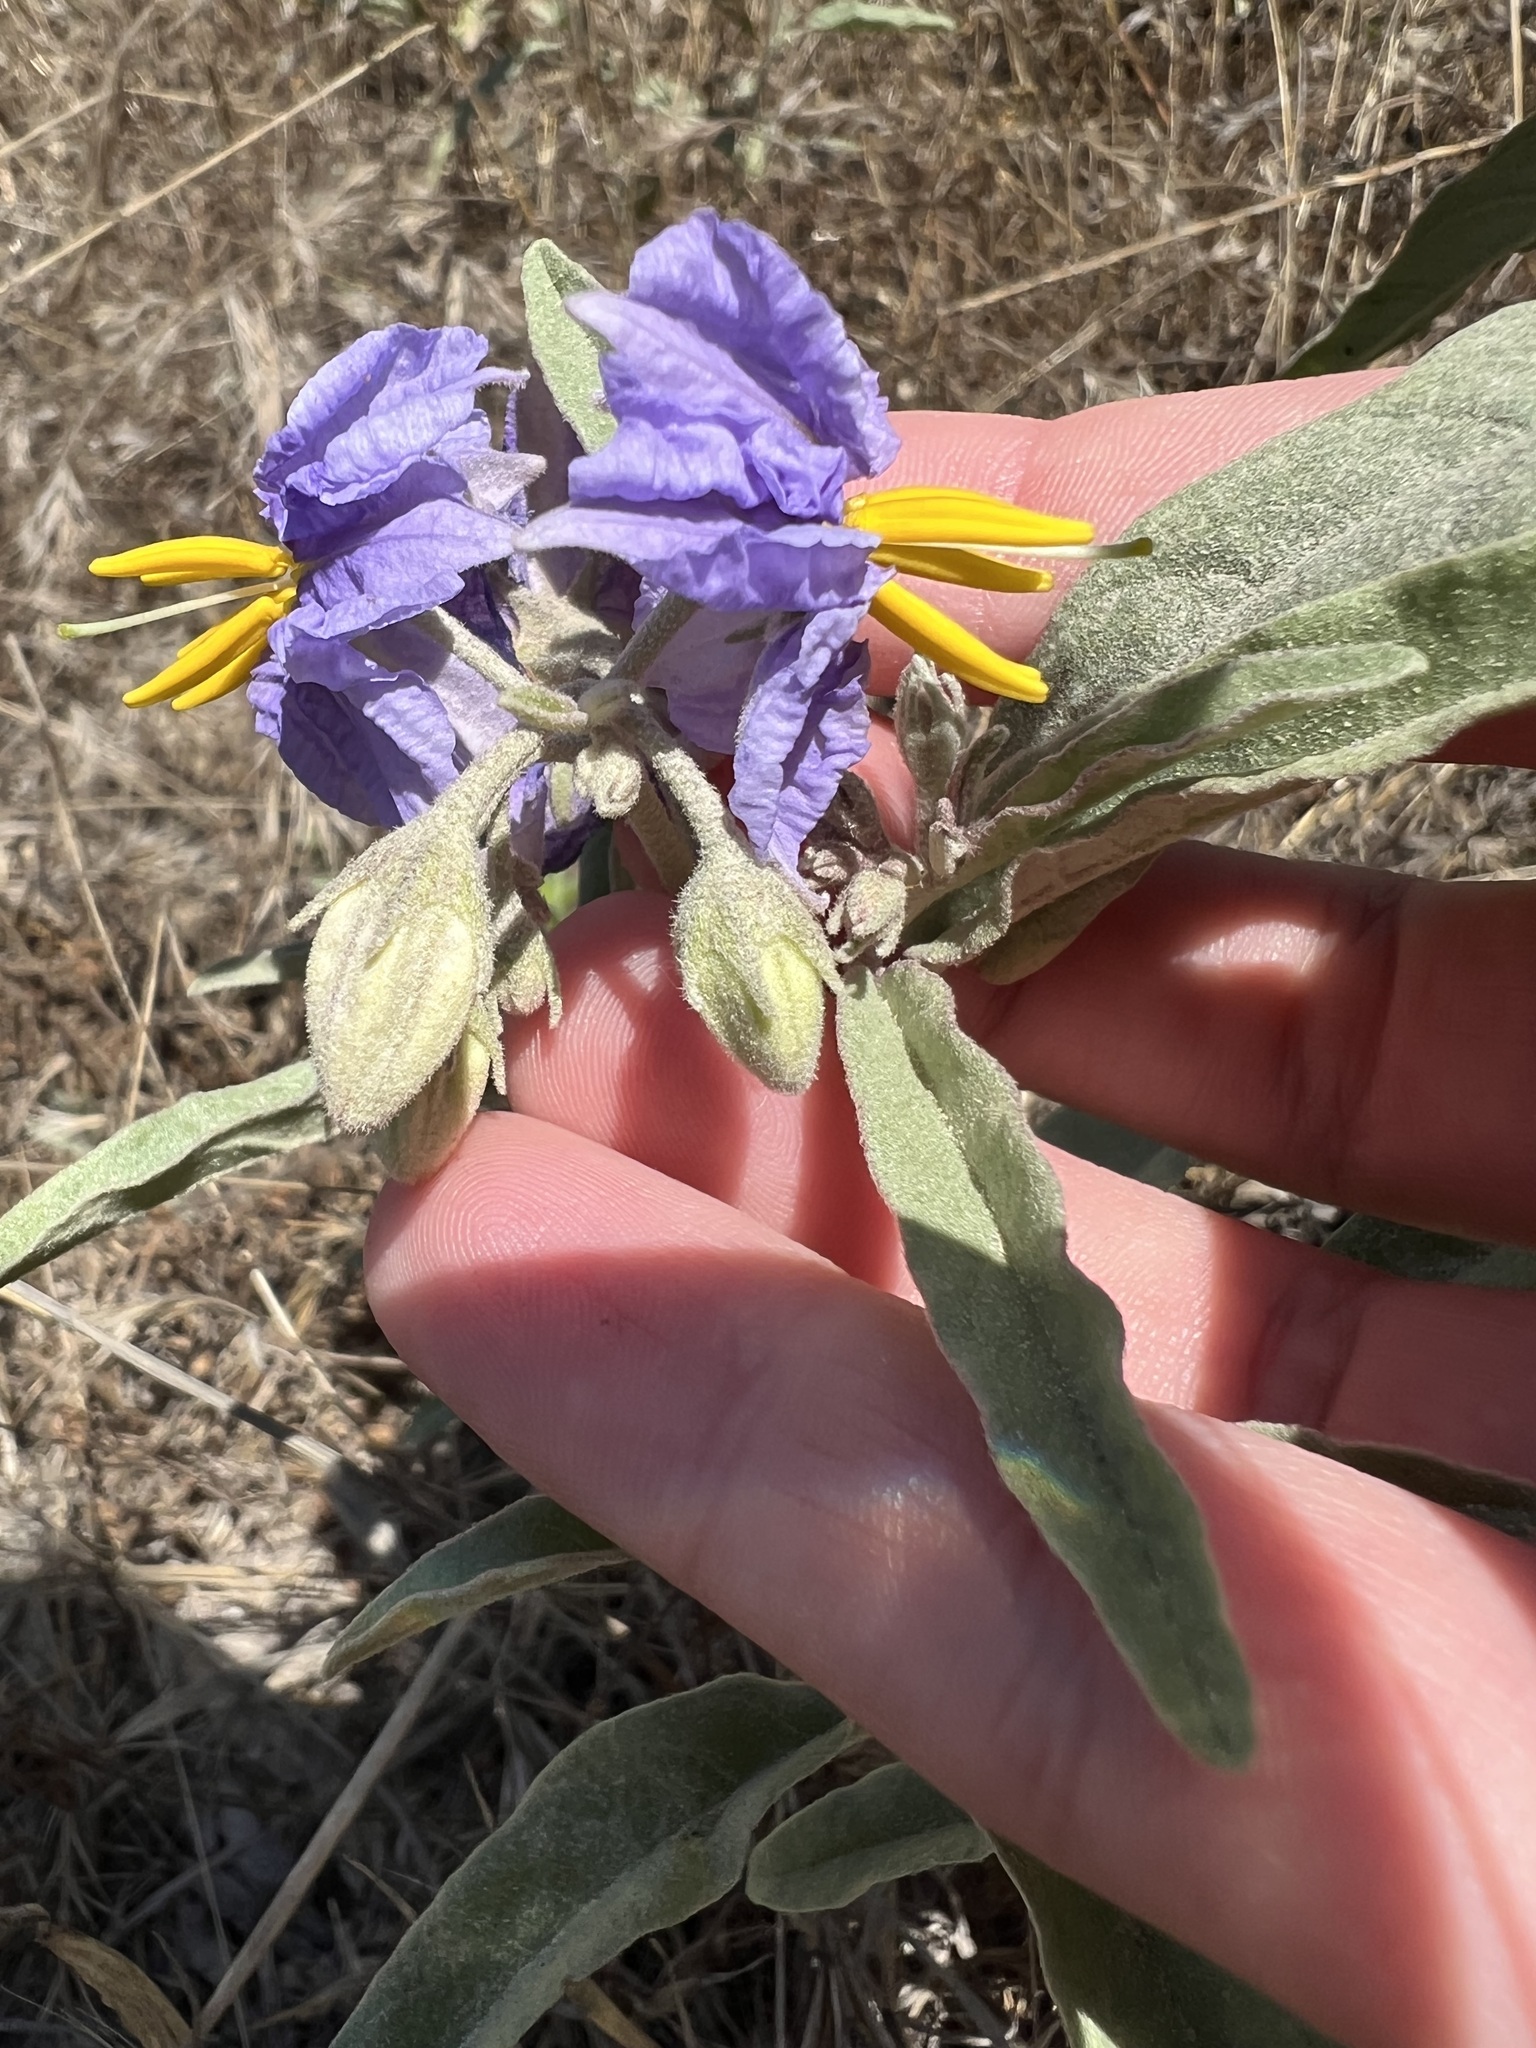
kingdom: Plantae
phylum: Tracheophyta
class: Magnoliopsida
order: Solanales
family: Solanaceae
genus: Solanum
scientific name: Solanum elaeagnifolium
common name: Silverleaf nightshade
